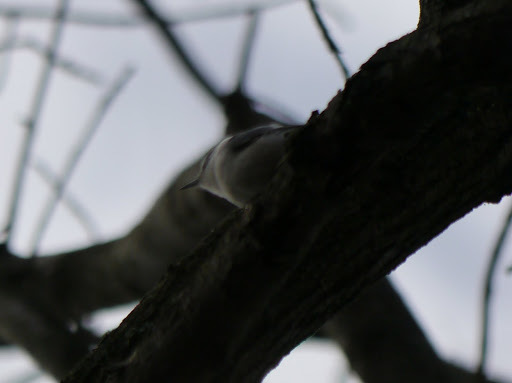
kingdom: Animalia
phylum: Chordata
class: Aves
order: Passeriformes
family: Sittidae
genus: Sitta
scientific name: Sitta carolinensis
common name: White-breasted nuthatch
